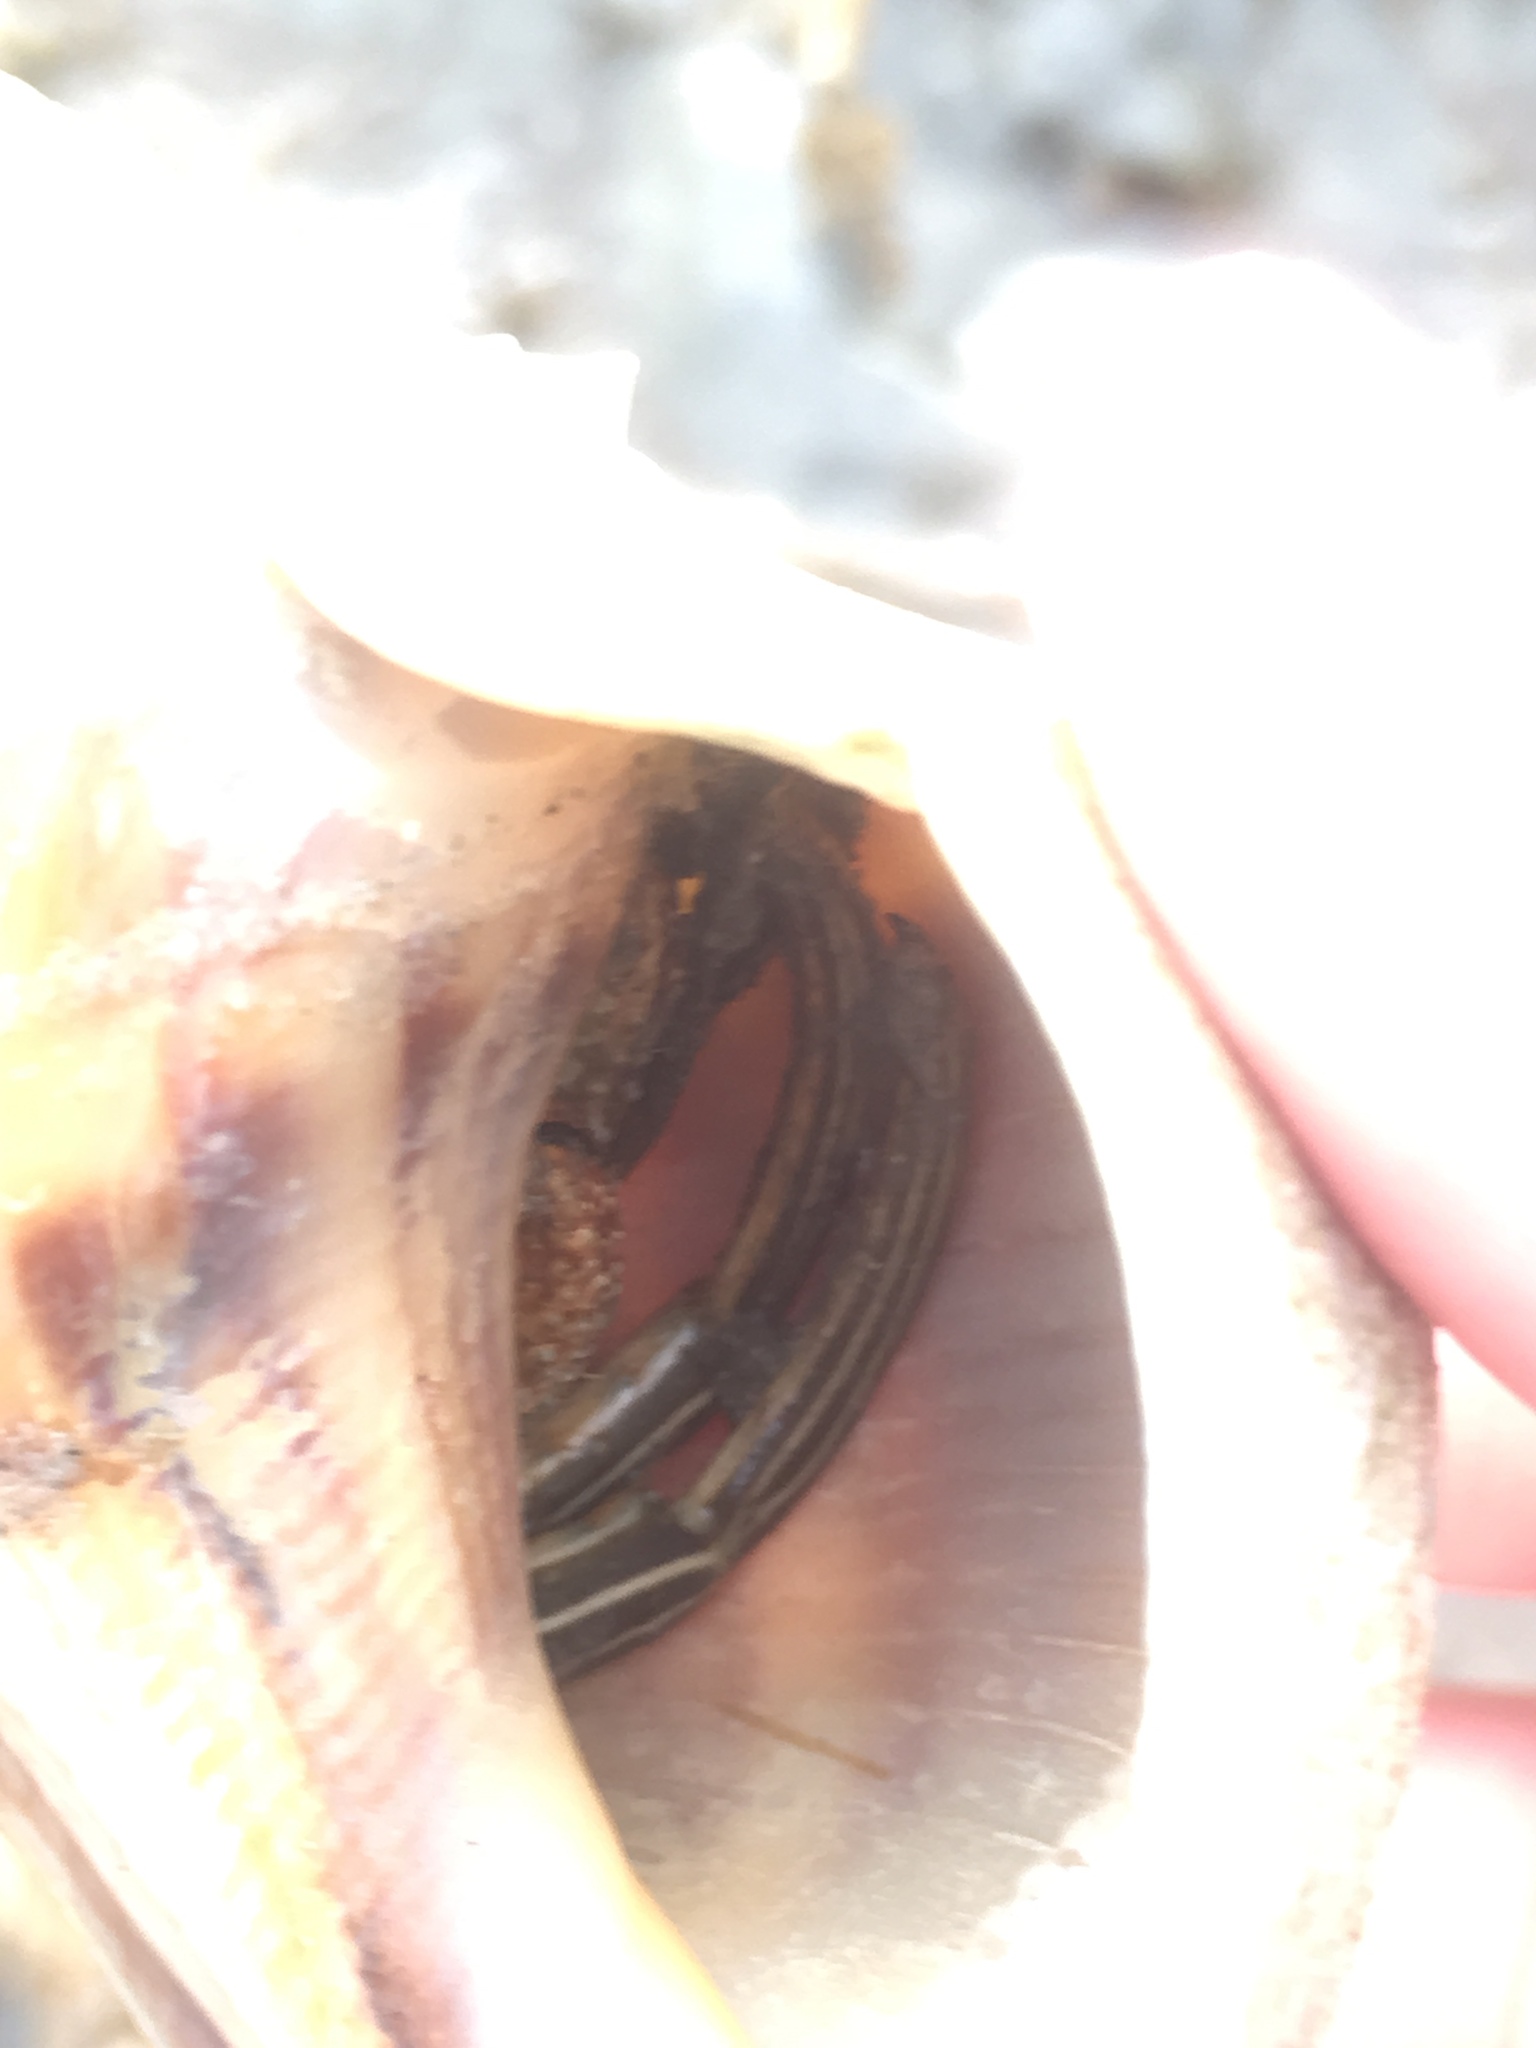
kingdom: Animalia
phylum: Arthropoda
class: Malacostraca
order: Decapoda
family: Diogenidae
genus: Clibanarius
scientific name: Clibanarius vittatus
